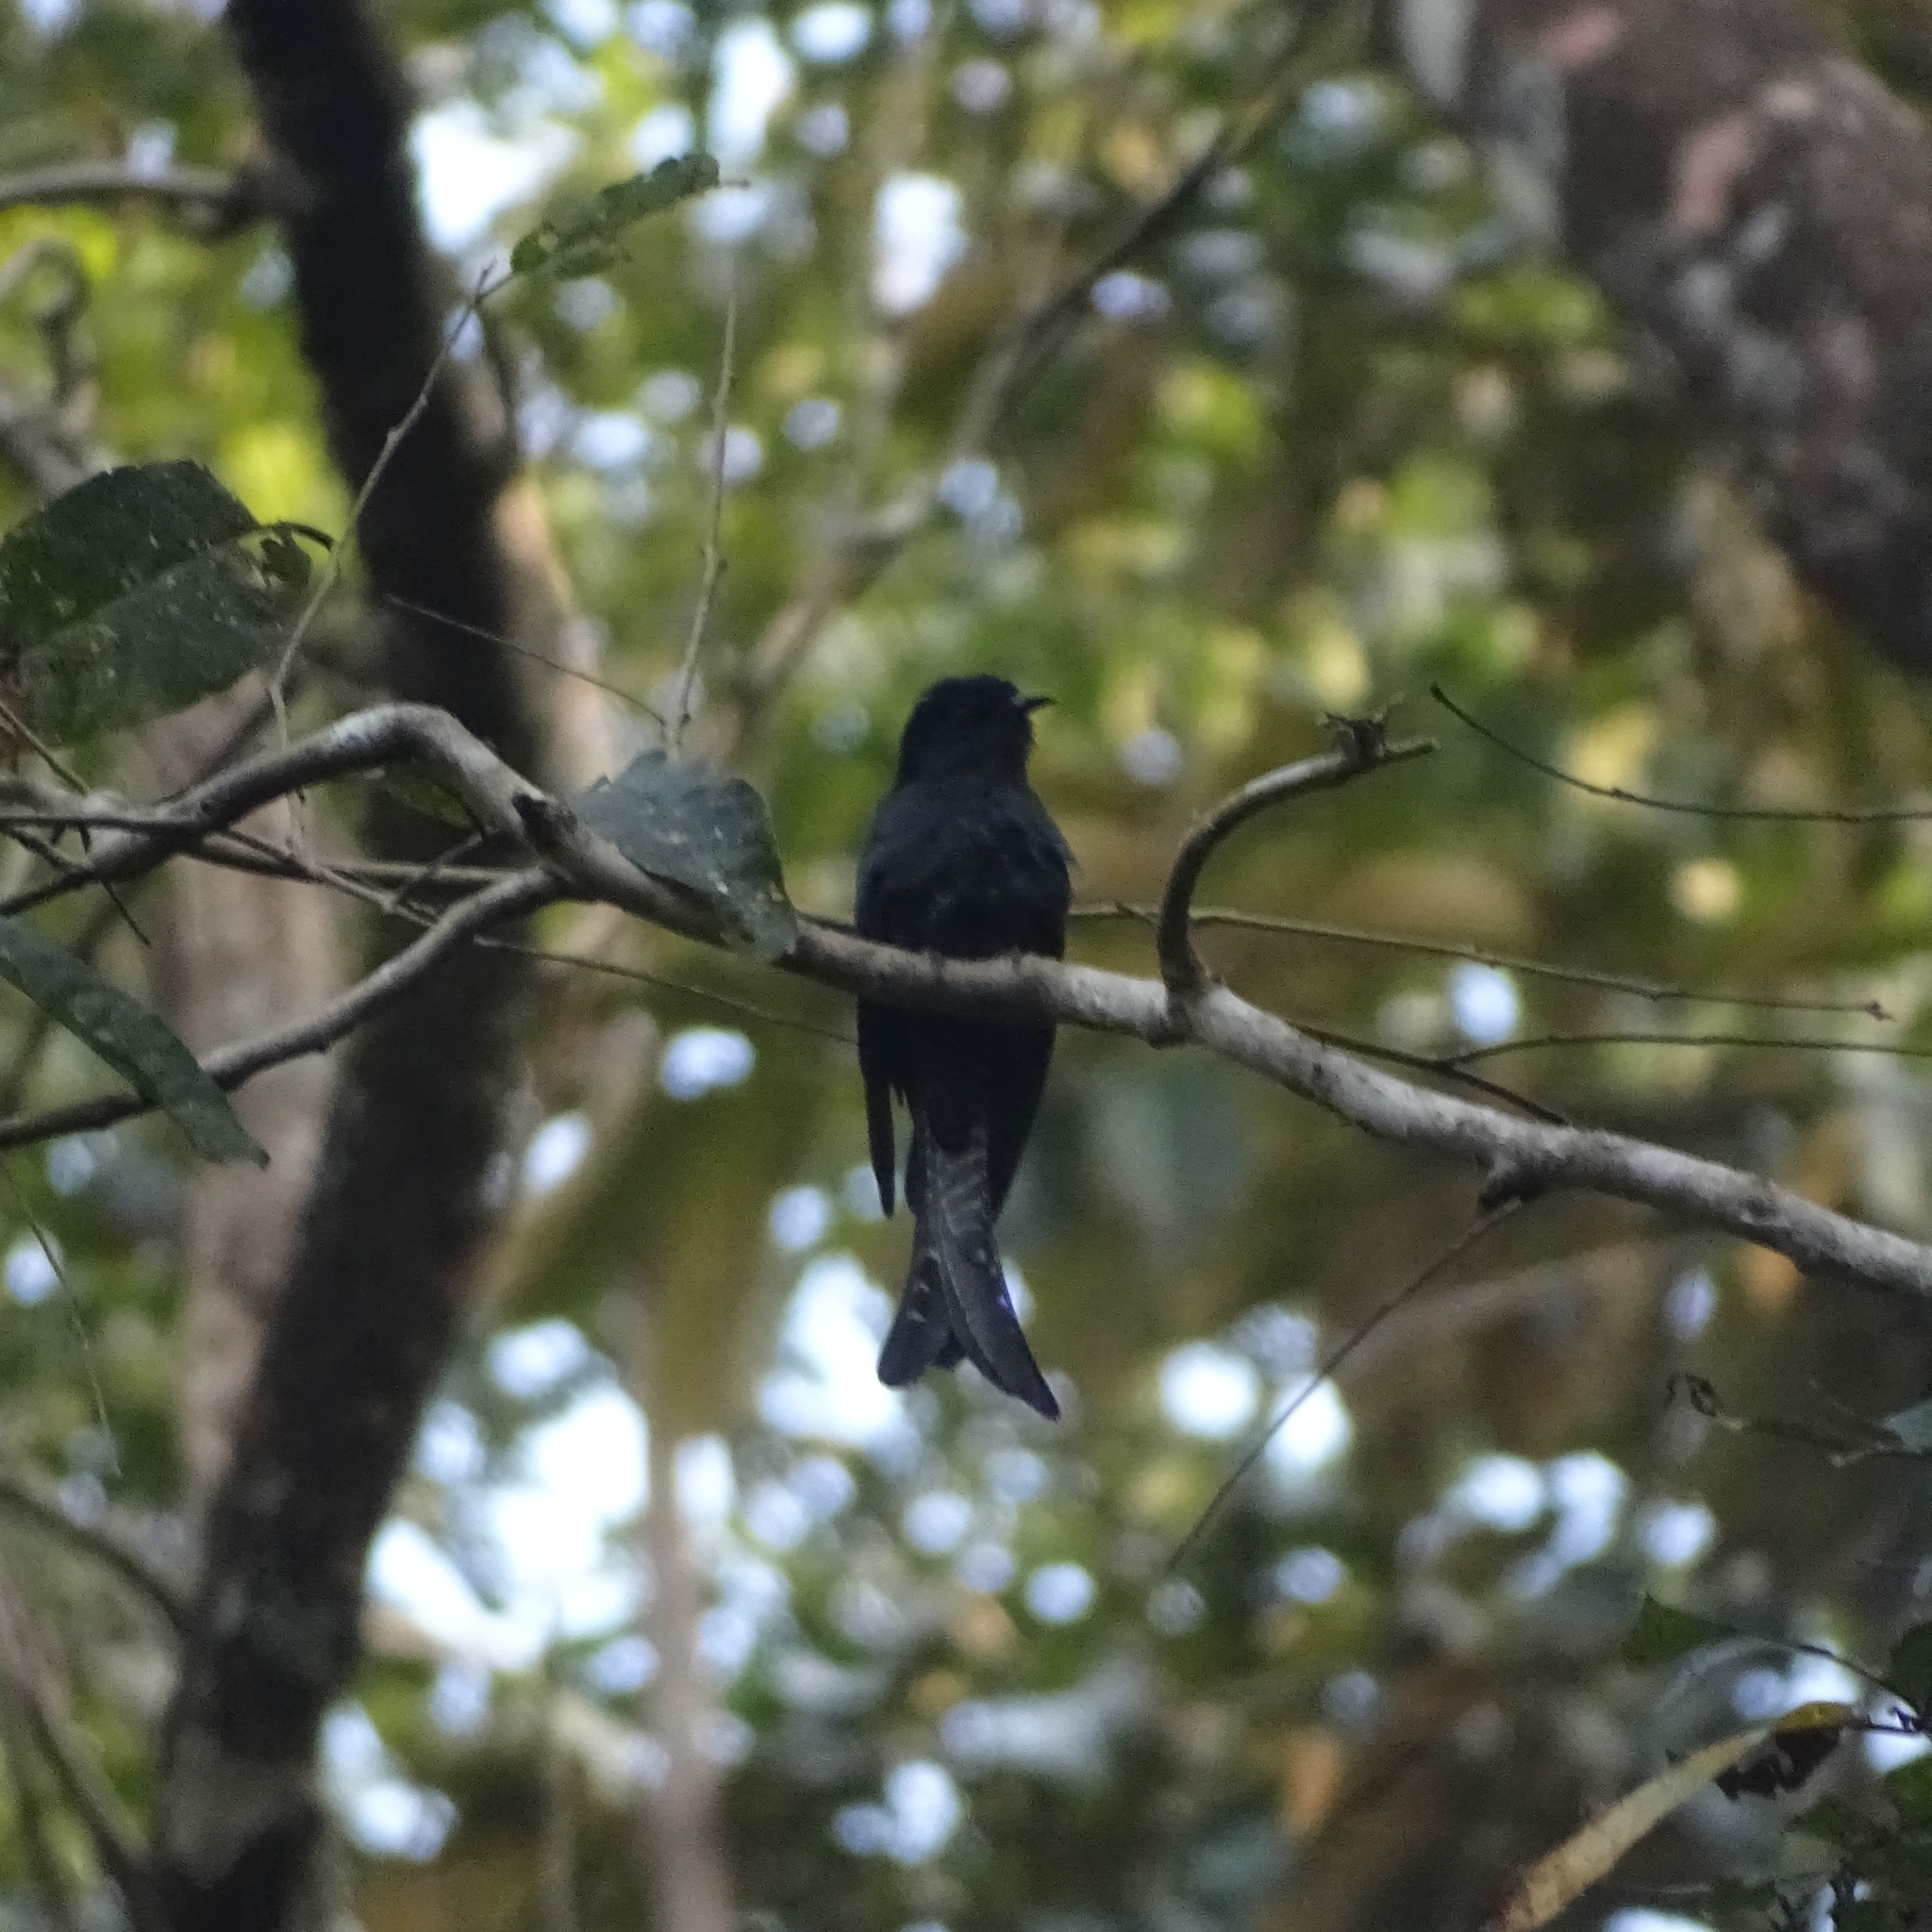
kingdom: Animalia
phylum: Chordata
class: Aves
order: Cuculiformes
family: Cuculidae
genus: Surniculus
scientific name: Surniculus lugubris
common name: Square-tailed drongo-cuckoo
